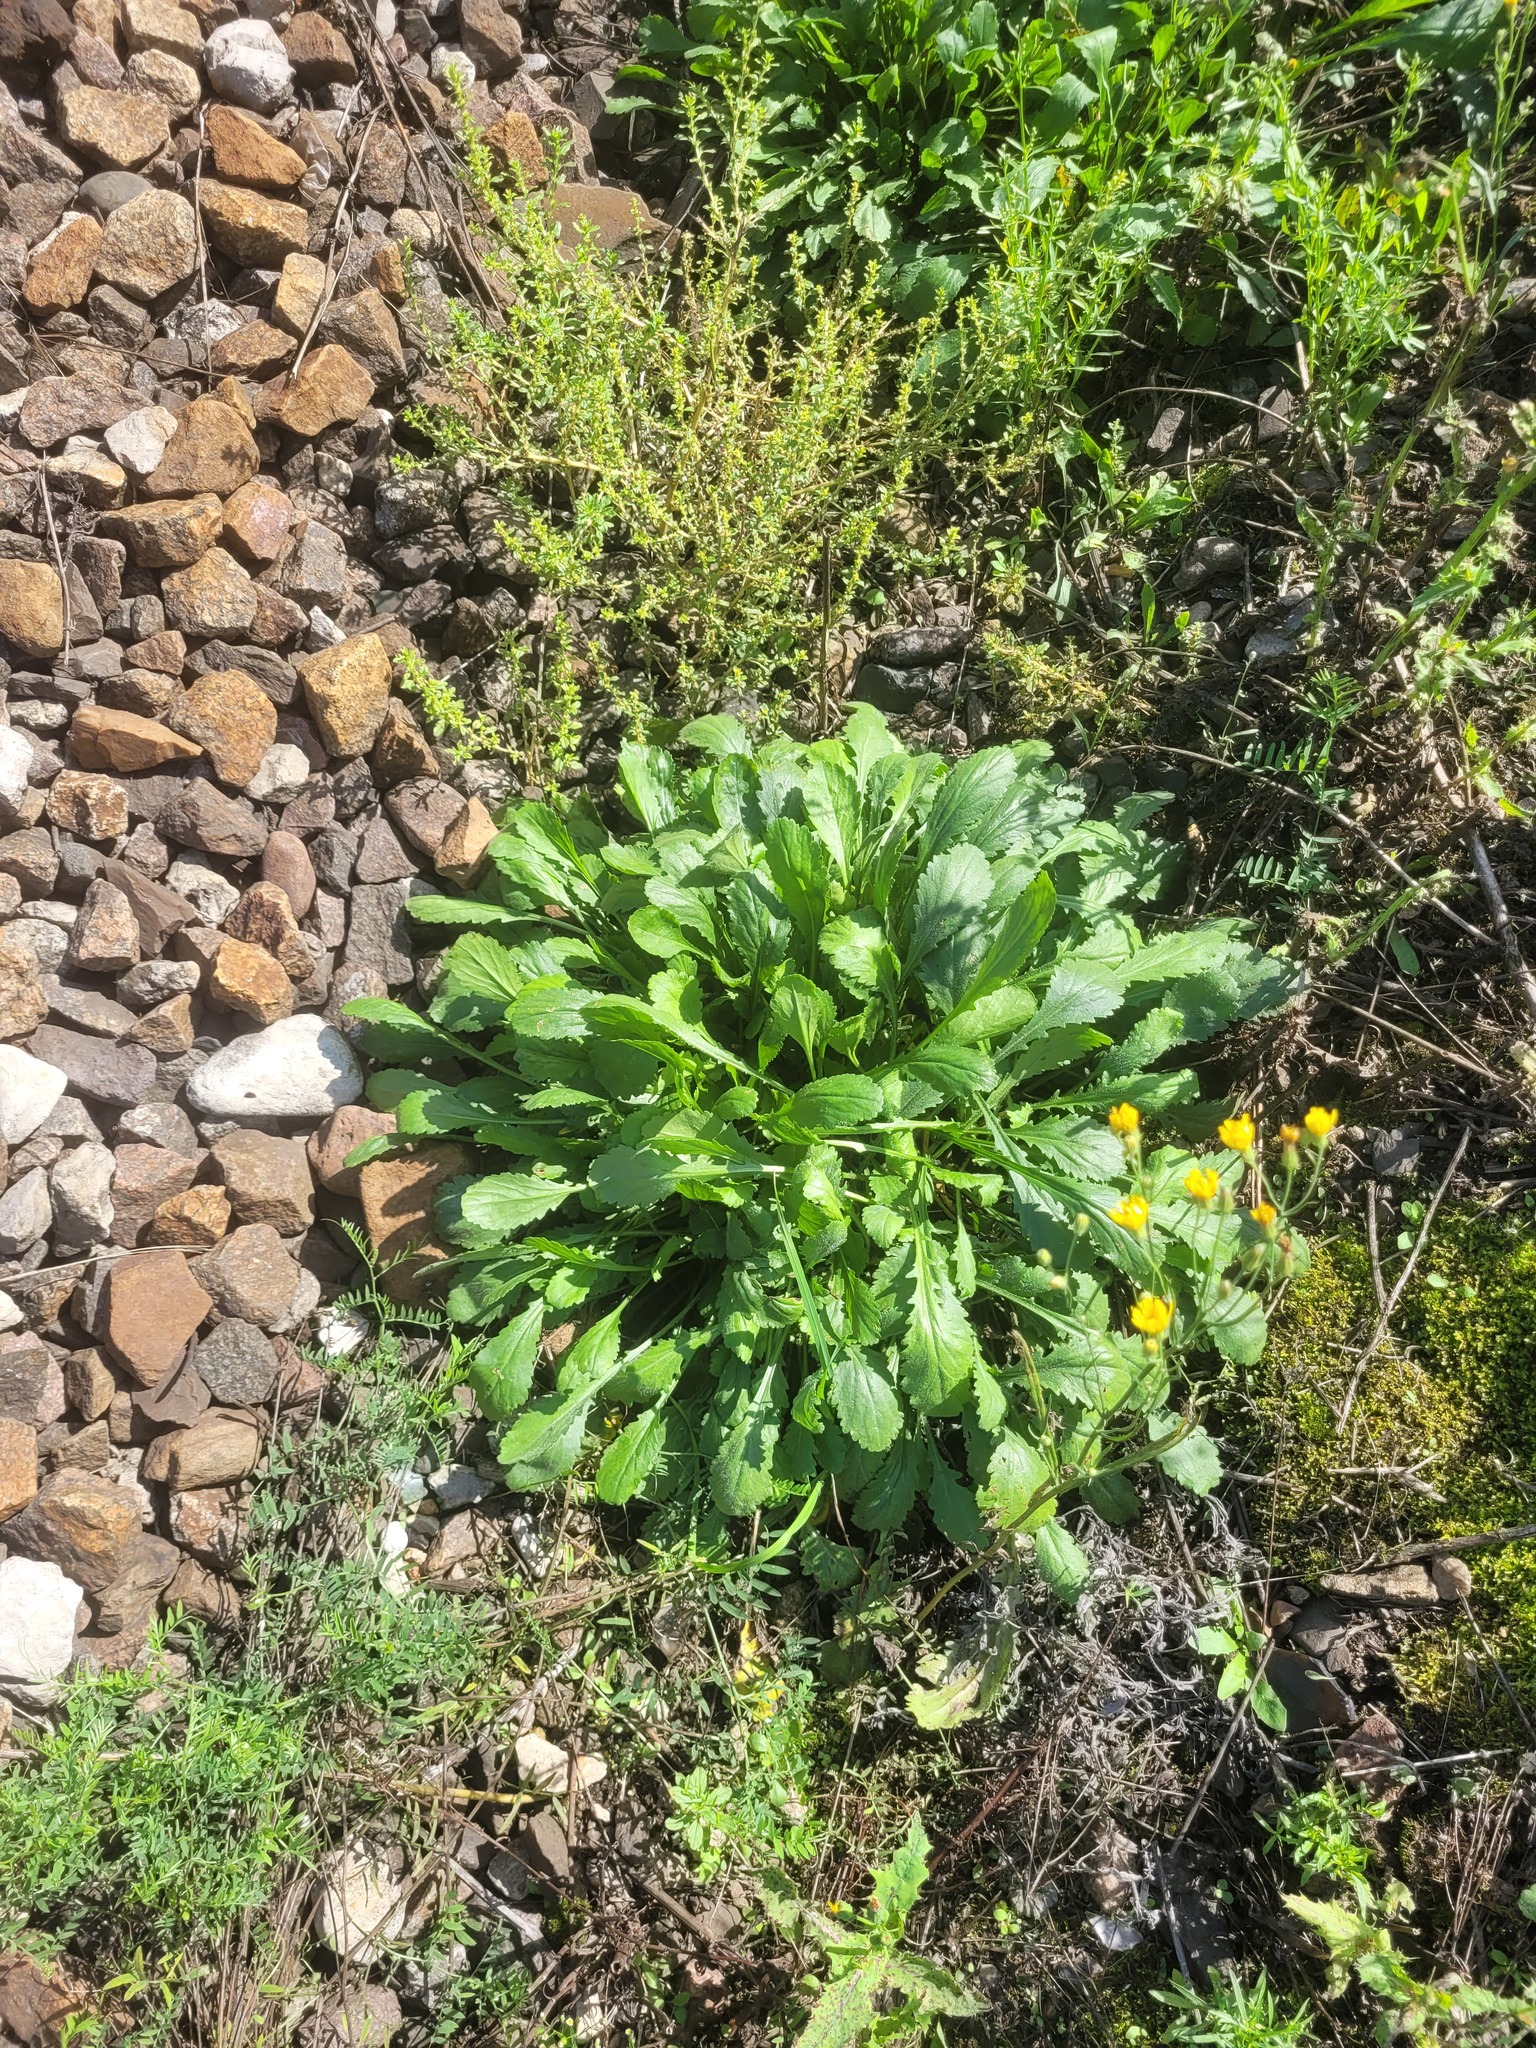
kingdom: Plantae
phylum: Tracheophyta
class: Magnoliopsida
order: Asterales
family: Asteraceae
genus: Leucanthemum
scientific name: Leucanthemum vulgare
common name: Oxeye daisy
